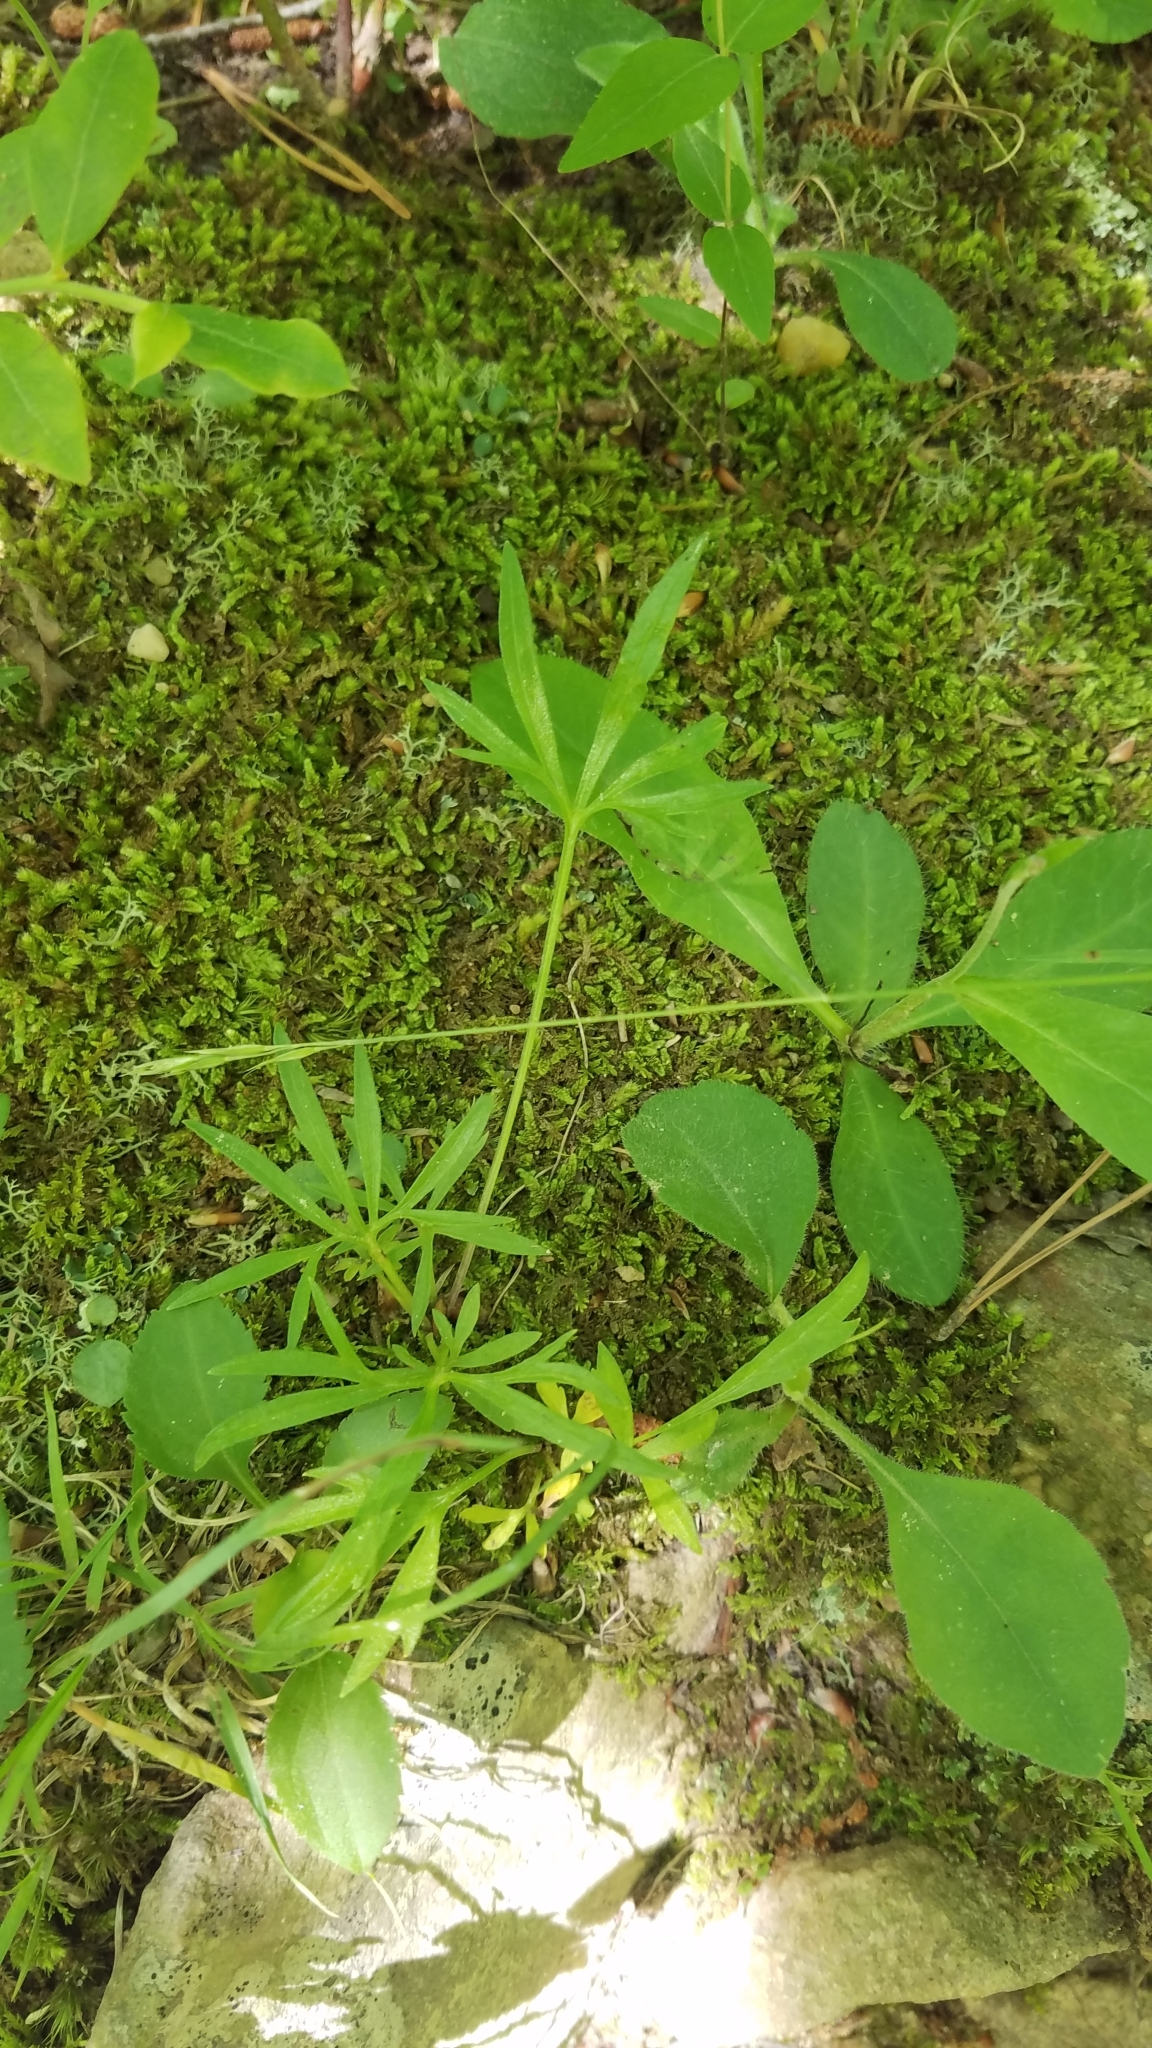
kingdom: Plantae
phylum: Tracheophyta
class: Magnoliopsida
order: Malpighiales
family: Violaceae
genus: Viola
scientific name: Viola pedata
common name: Pansy violet
